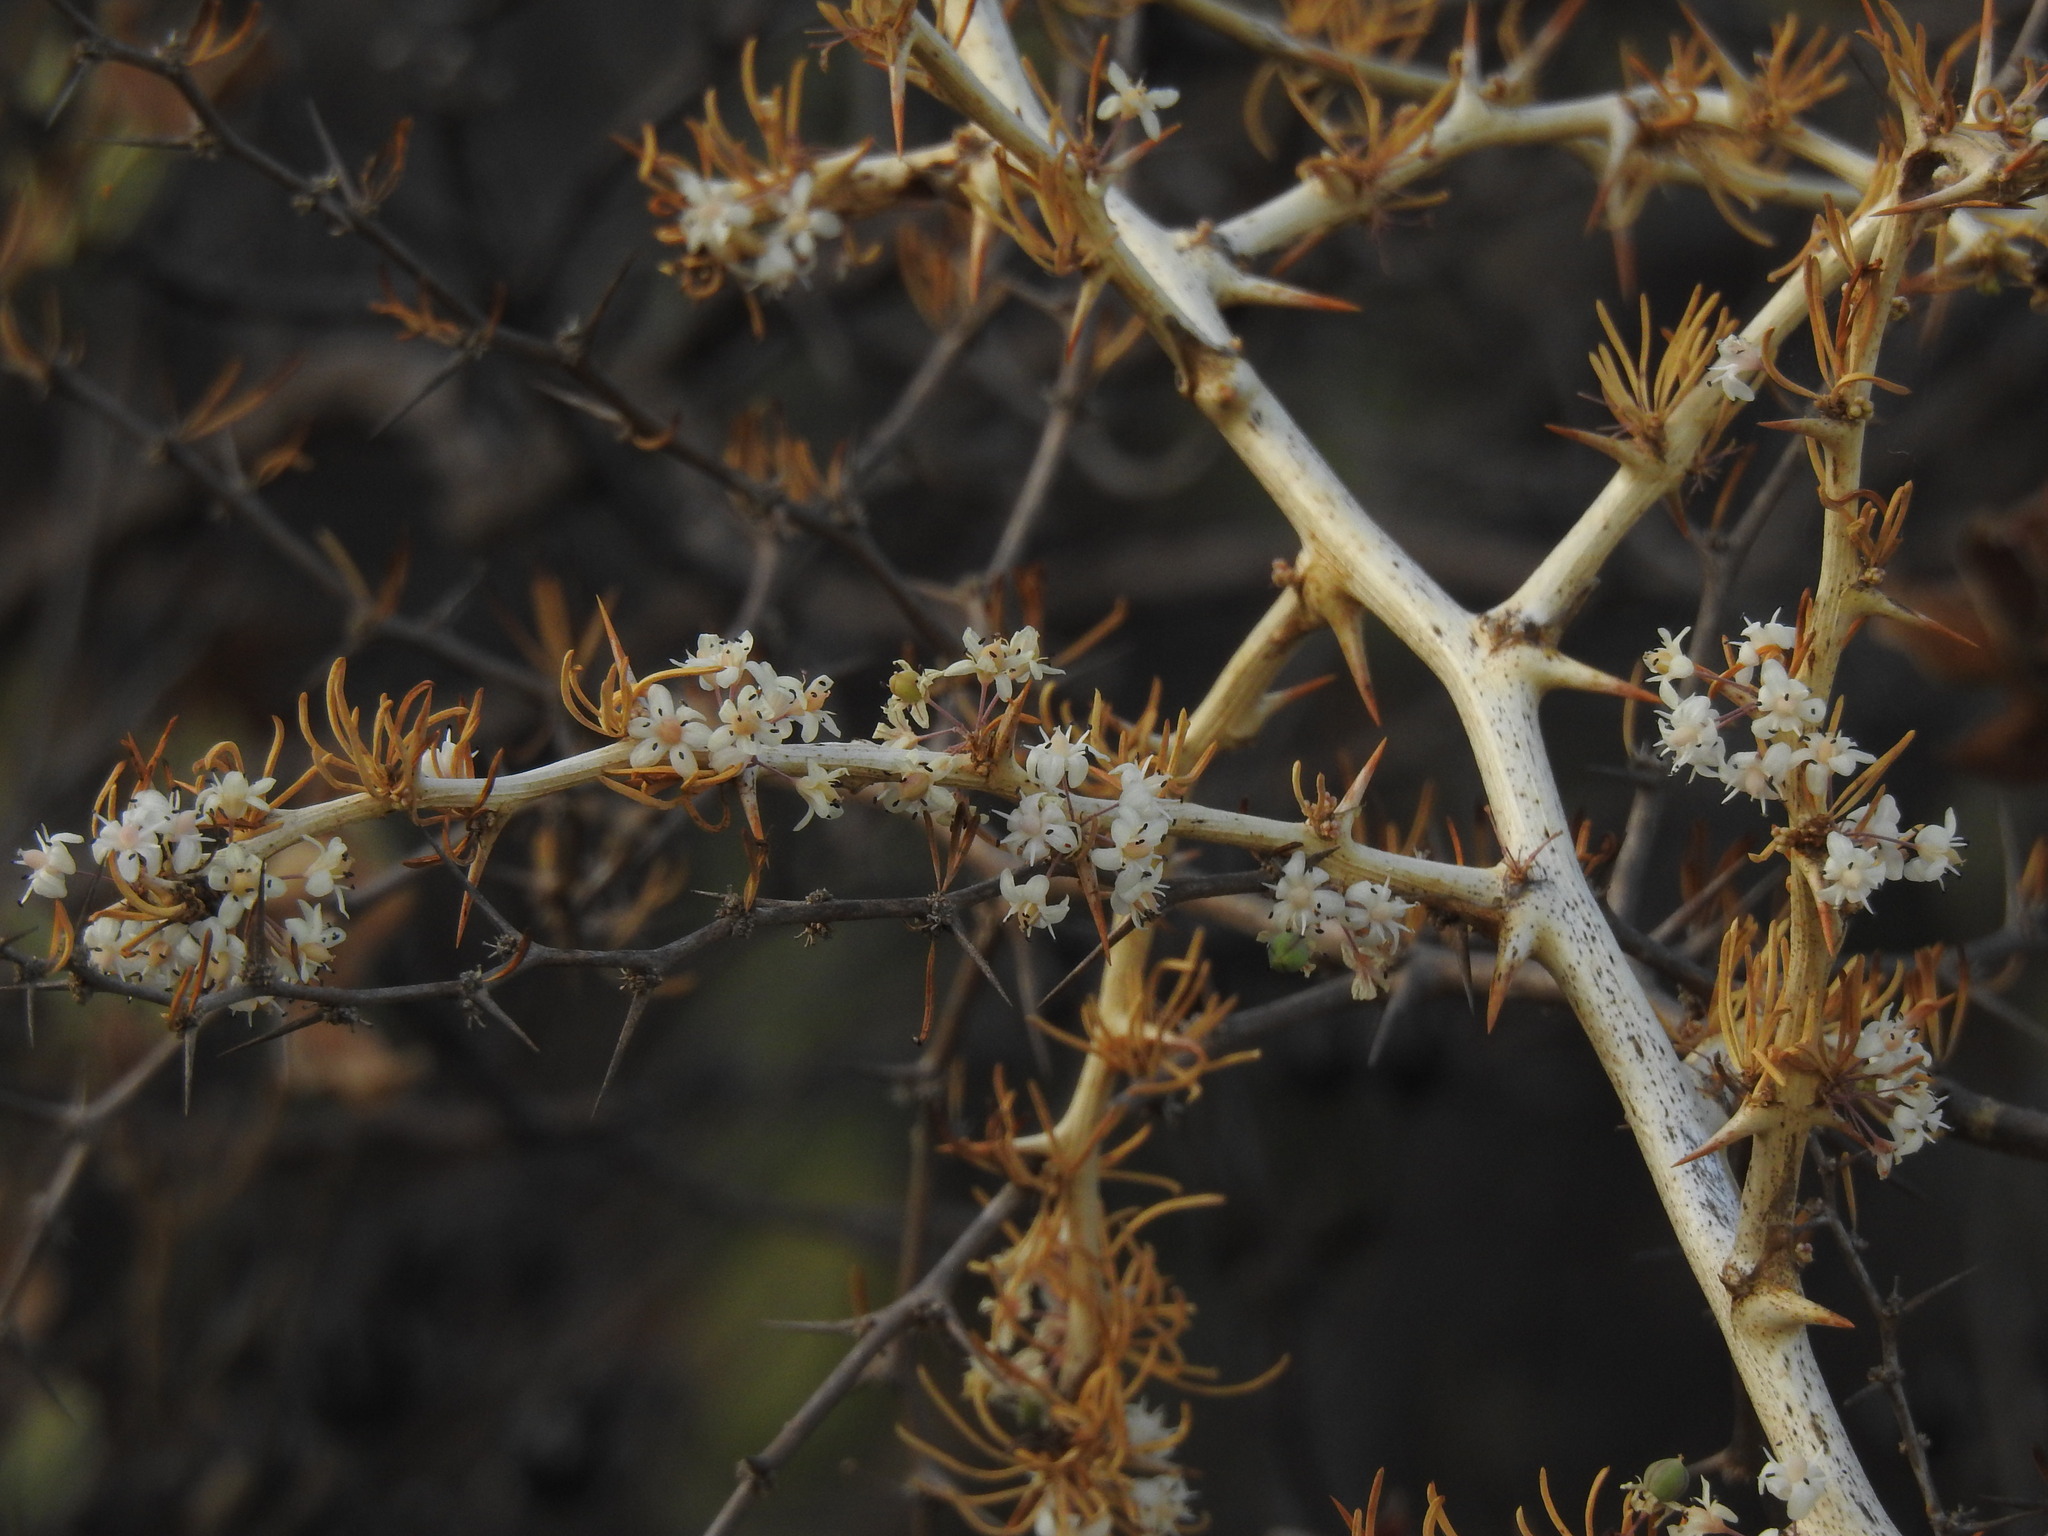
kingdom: Plantae
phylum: Tracheophyta
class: Liliopsida
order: Asparagales
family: Asparagaceae
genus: Asparagus
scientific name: Asparagus albus
